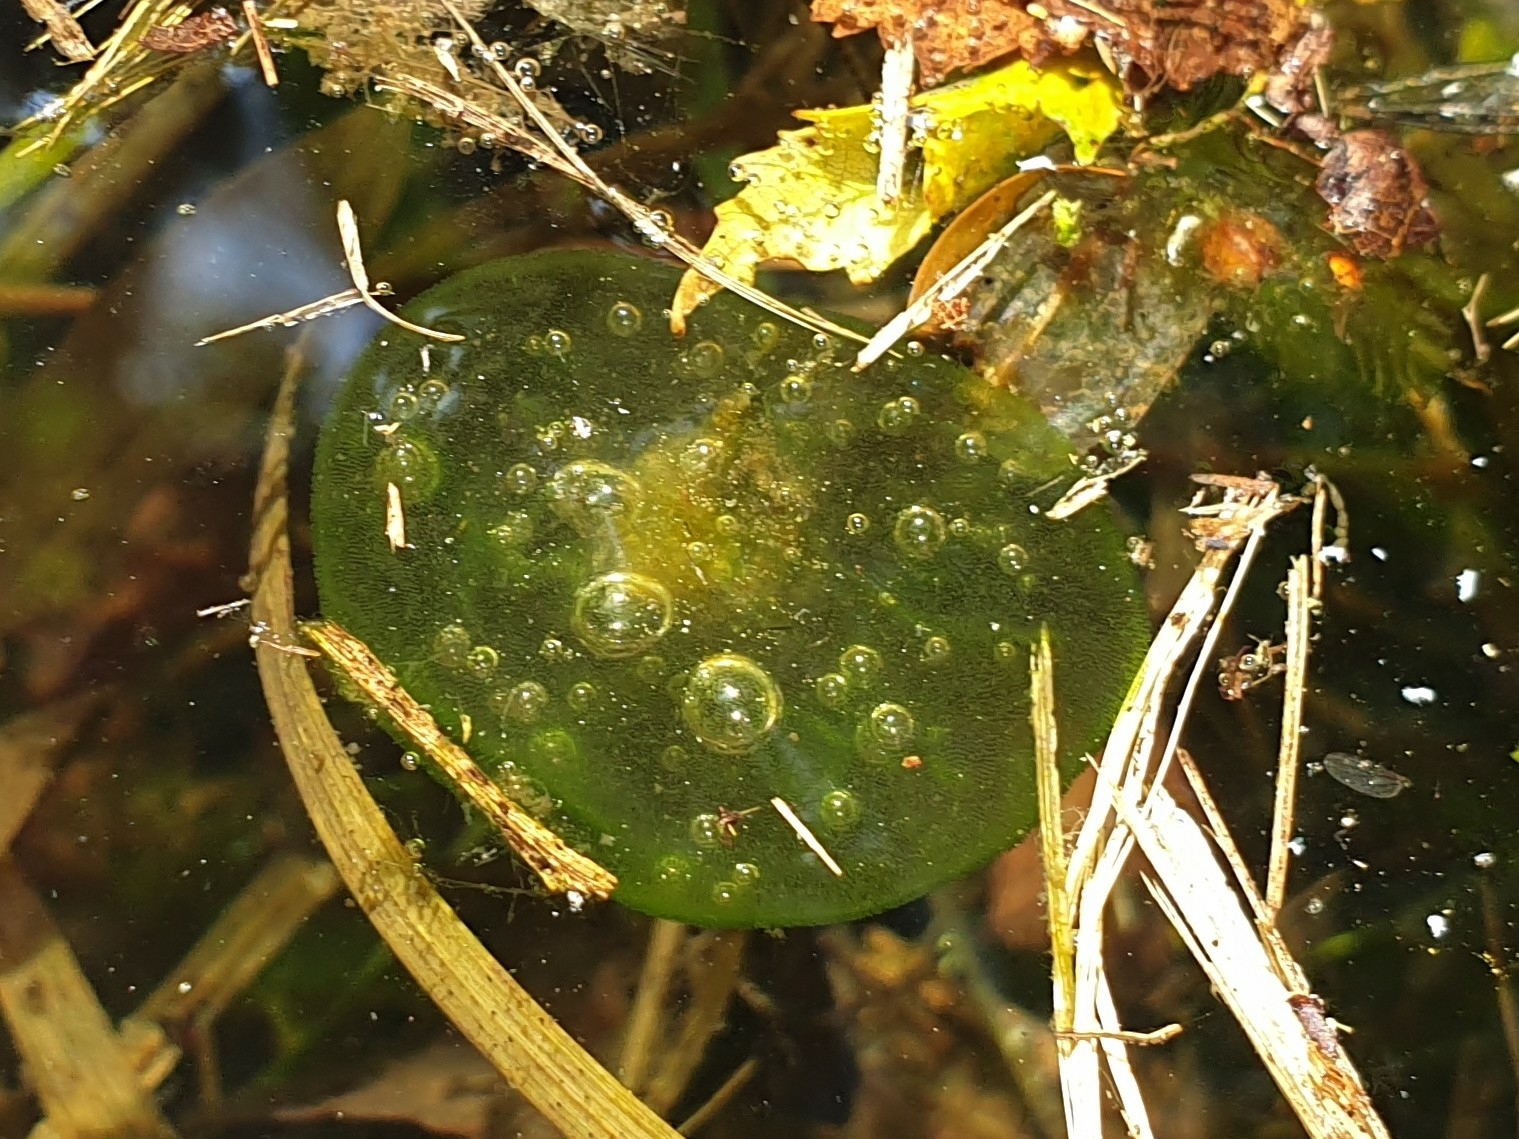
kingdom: Chromista
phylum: Ciliophora
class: Oligohymenophorea
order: Peritrichida
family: Ophrydiidae
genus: Ophrydium
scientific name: Ophrydium
